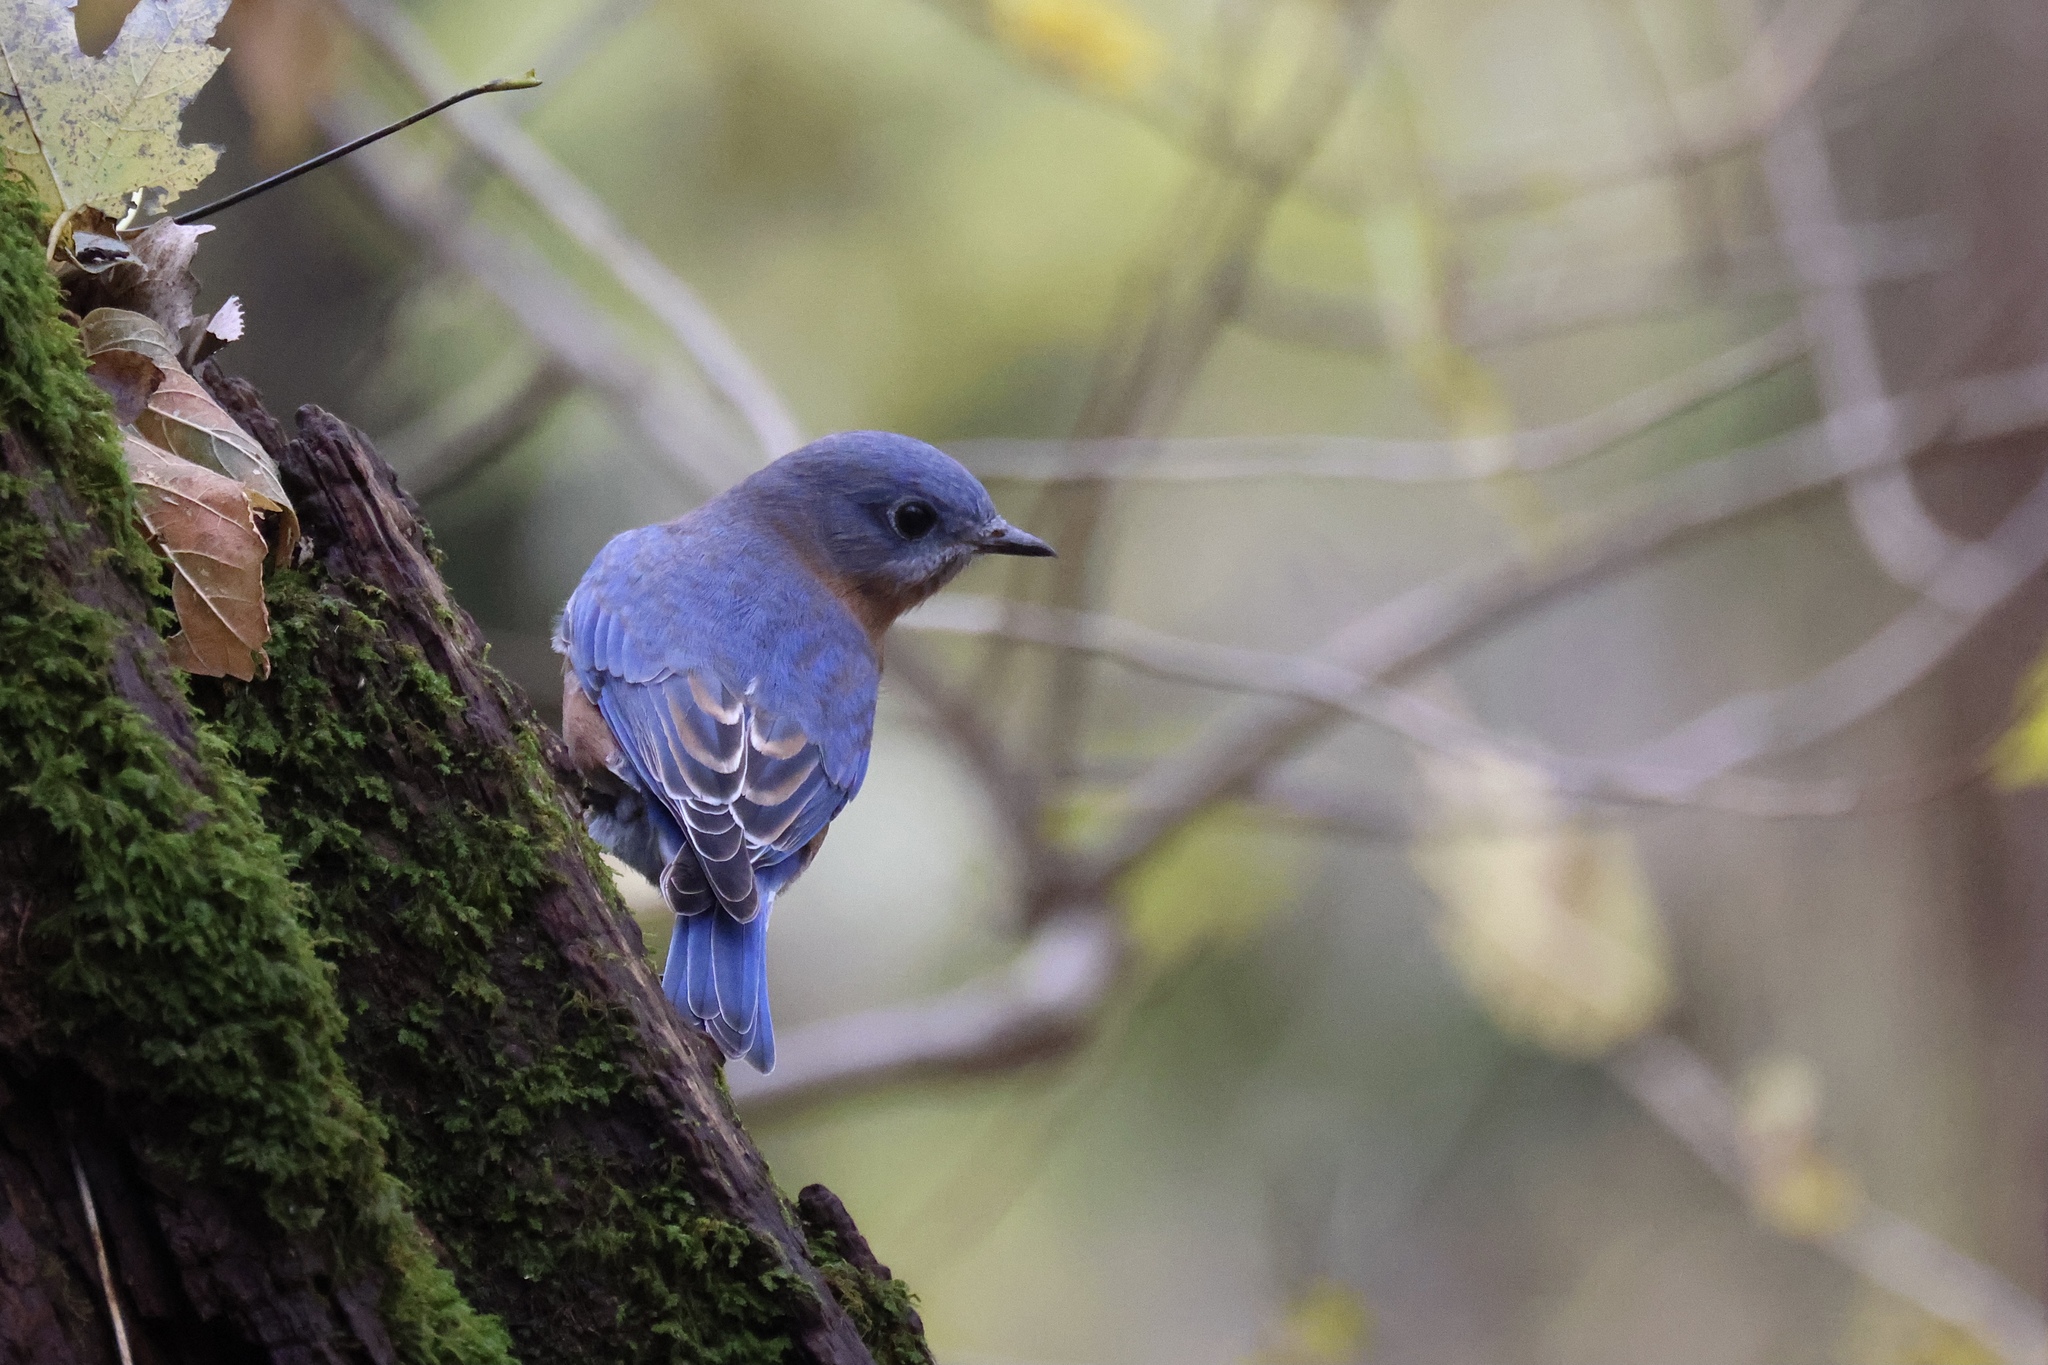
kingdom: Animalia
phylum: Chordata
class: Aves
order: Passeriformes
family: Turdidae
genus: Sialia
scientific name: Sialia sialis
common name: Eastern bluebird
